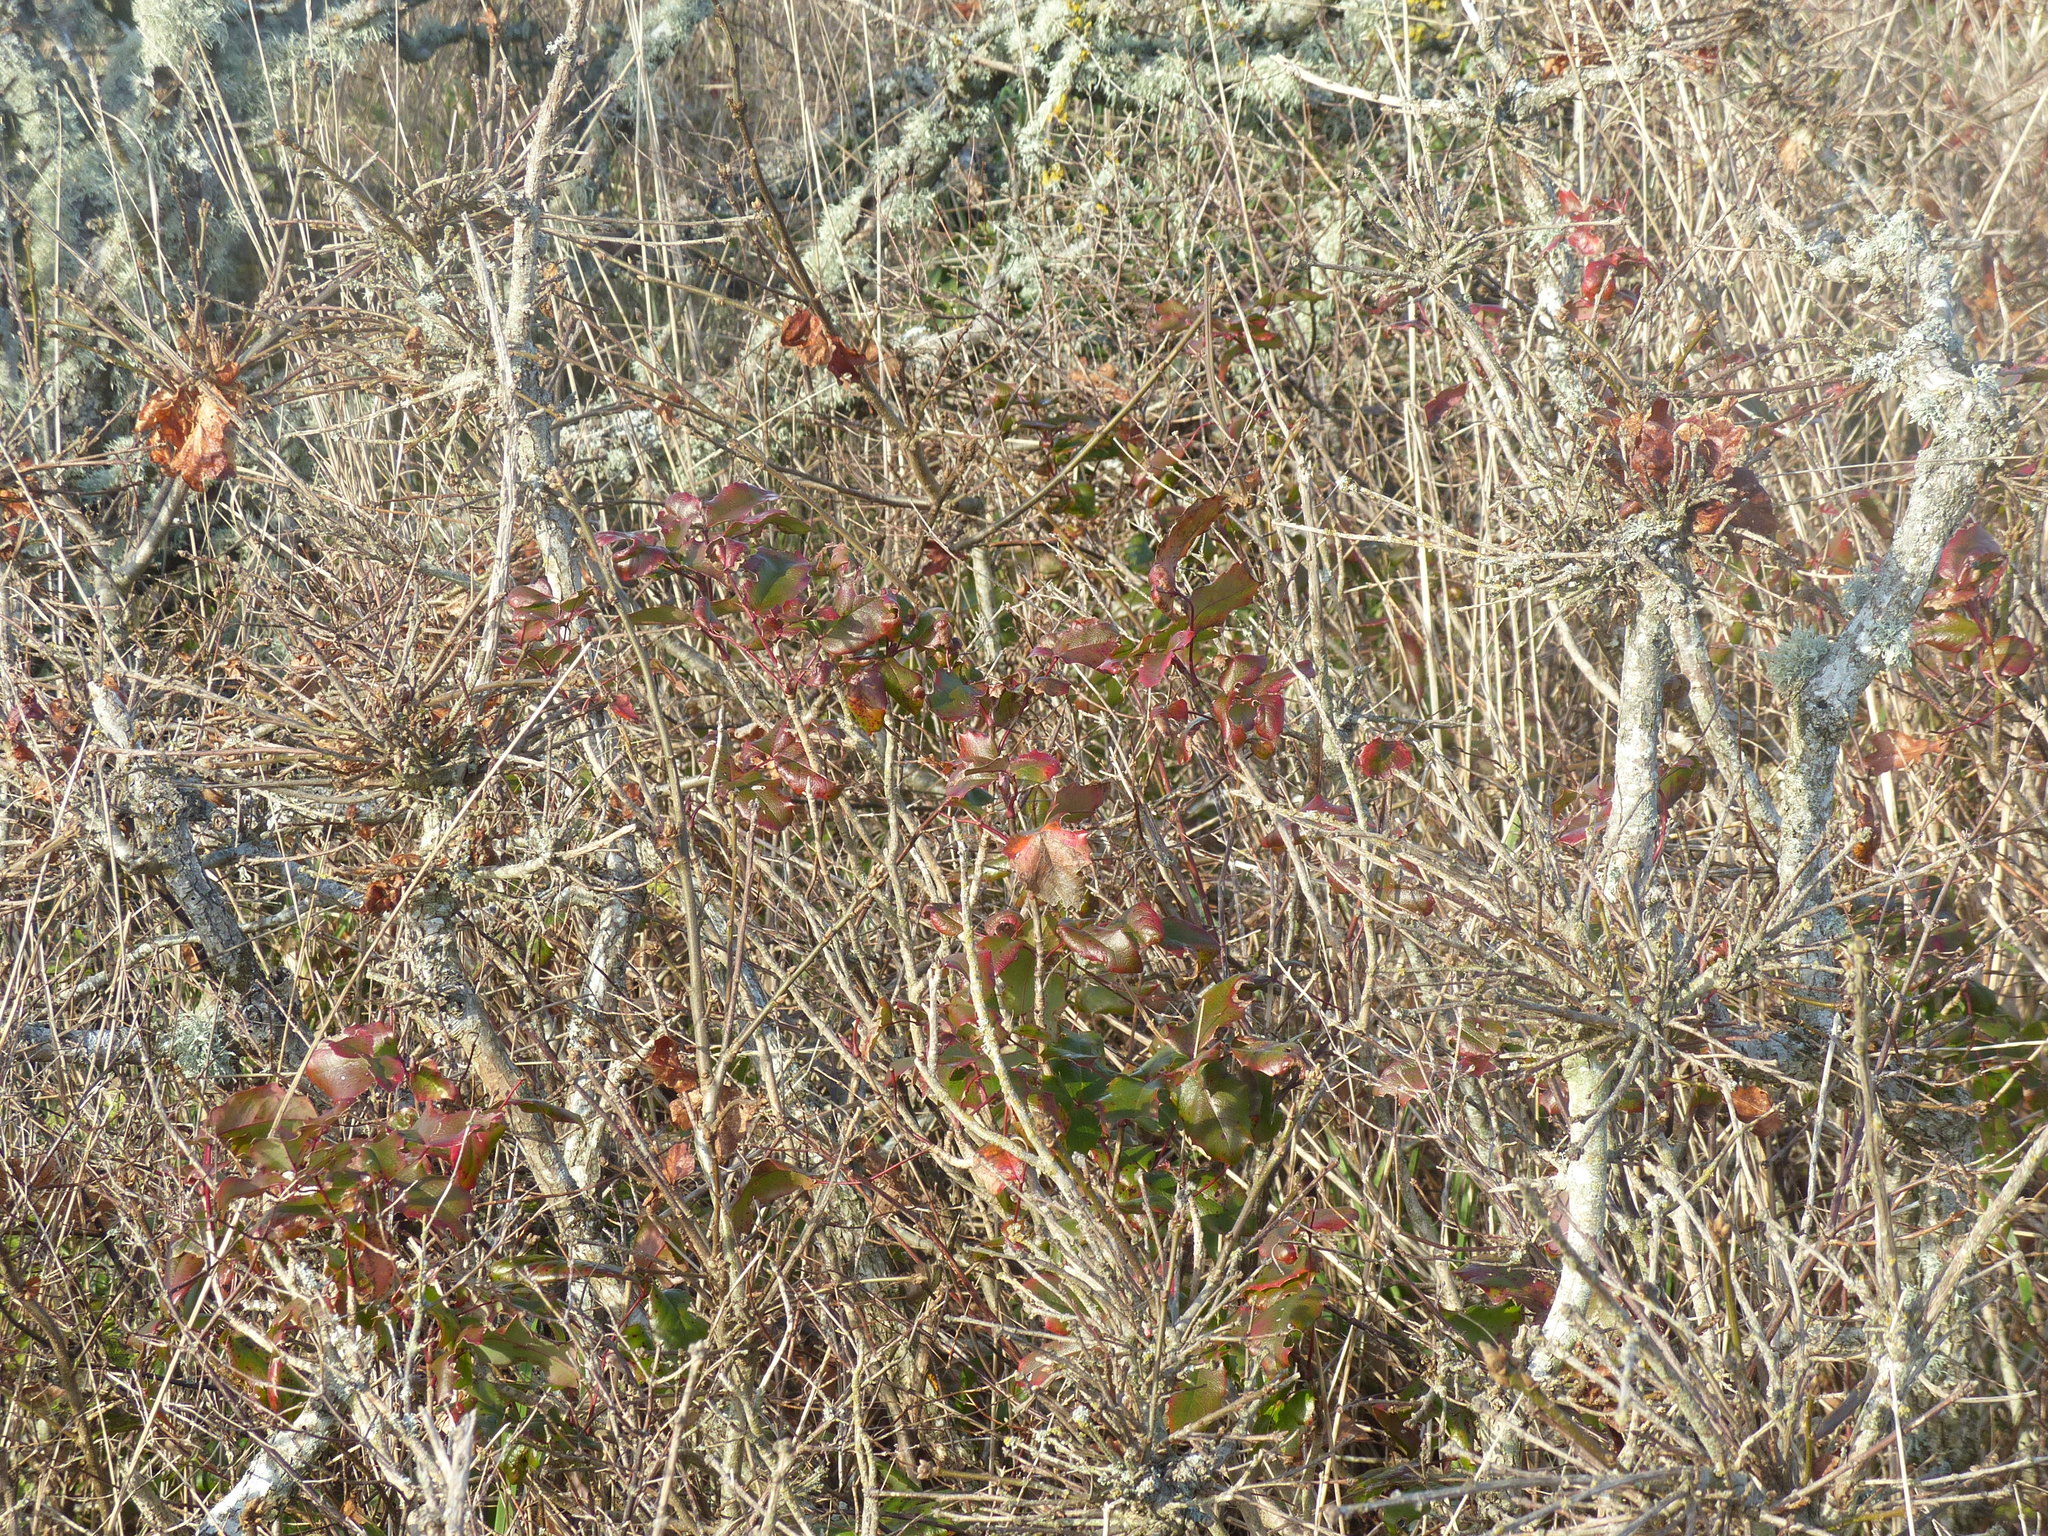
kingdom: Plantae
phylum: Tracheophyta
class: Magnoliopsida
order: Ranunculales
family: Berberidaceae
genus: Mahonia
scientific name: Mahonia aquifolium
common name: Oregon-grape
